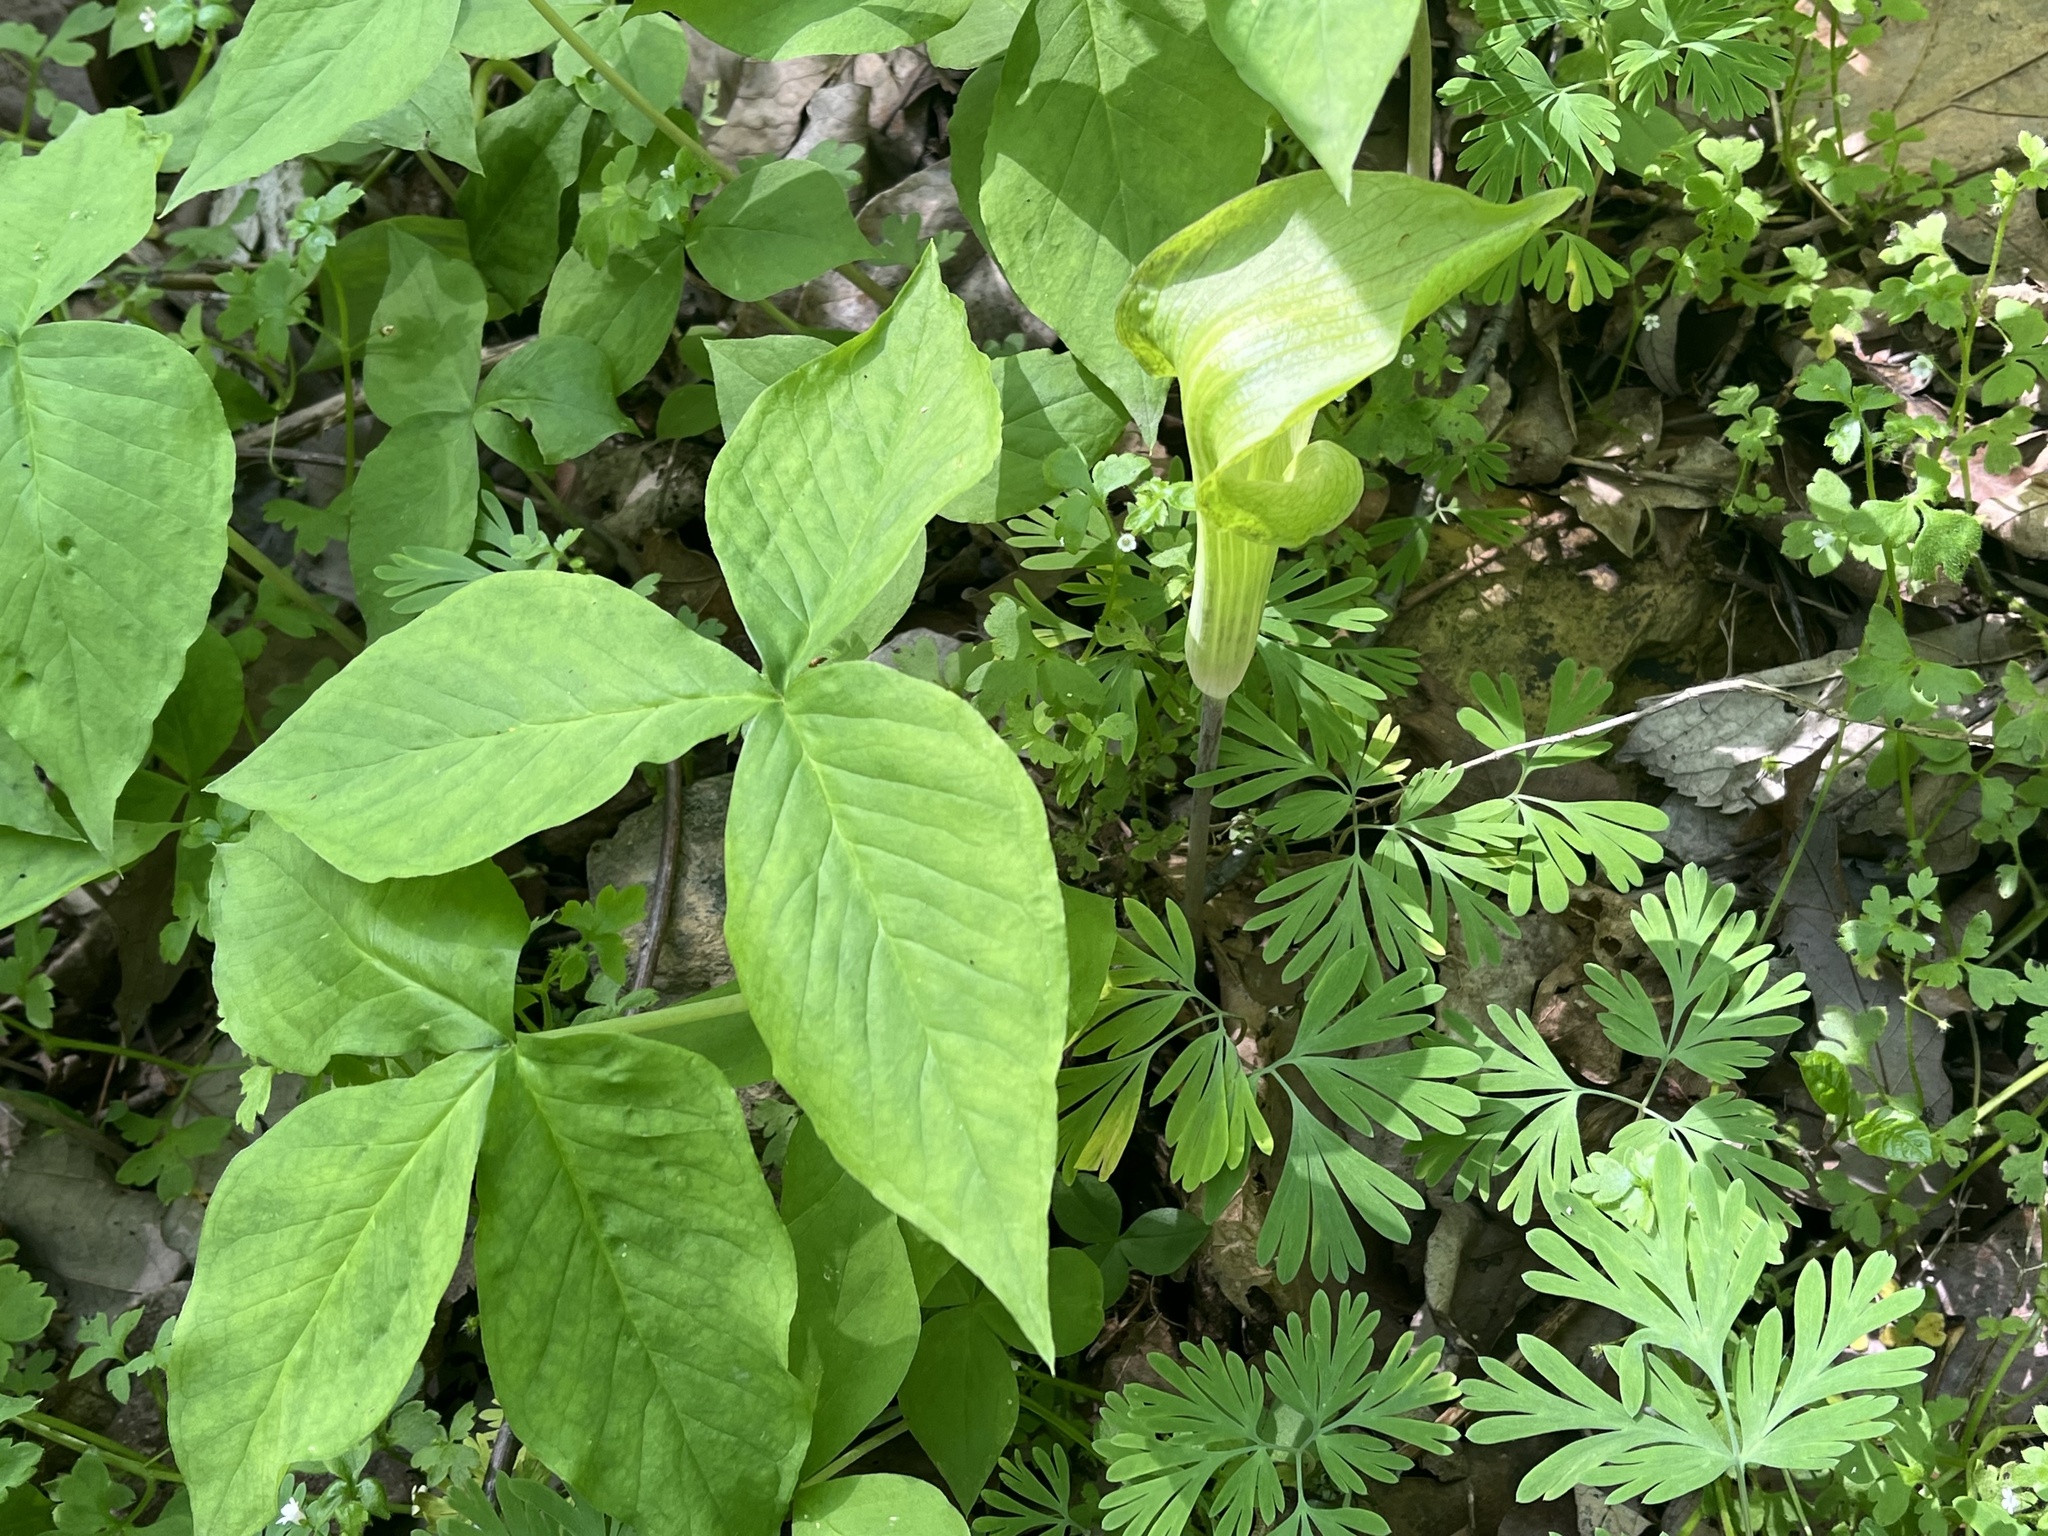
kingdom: Plantae
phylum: Tracheophyta
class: Liliopsida
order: Alismatales
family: Araceae
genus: Arisaema
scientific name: Arisaema triphyllum
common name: Jack-in-the-pulpit
